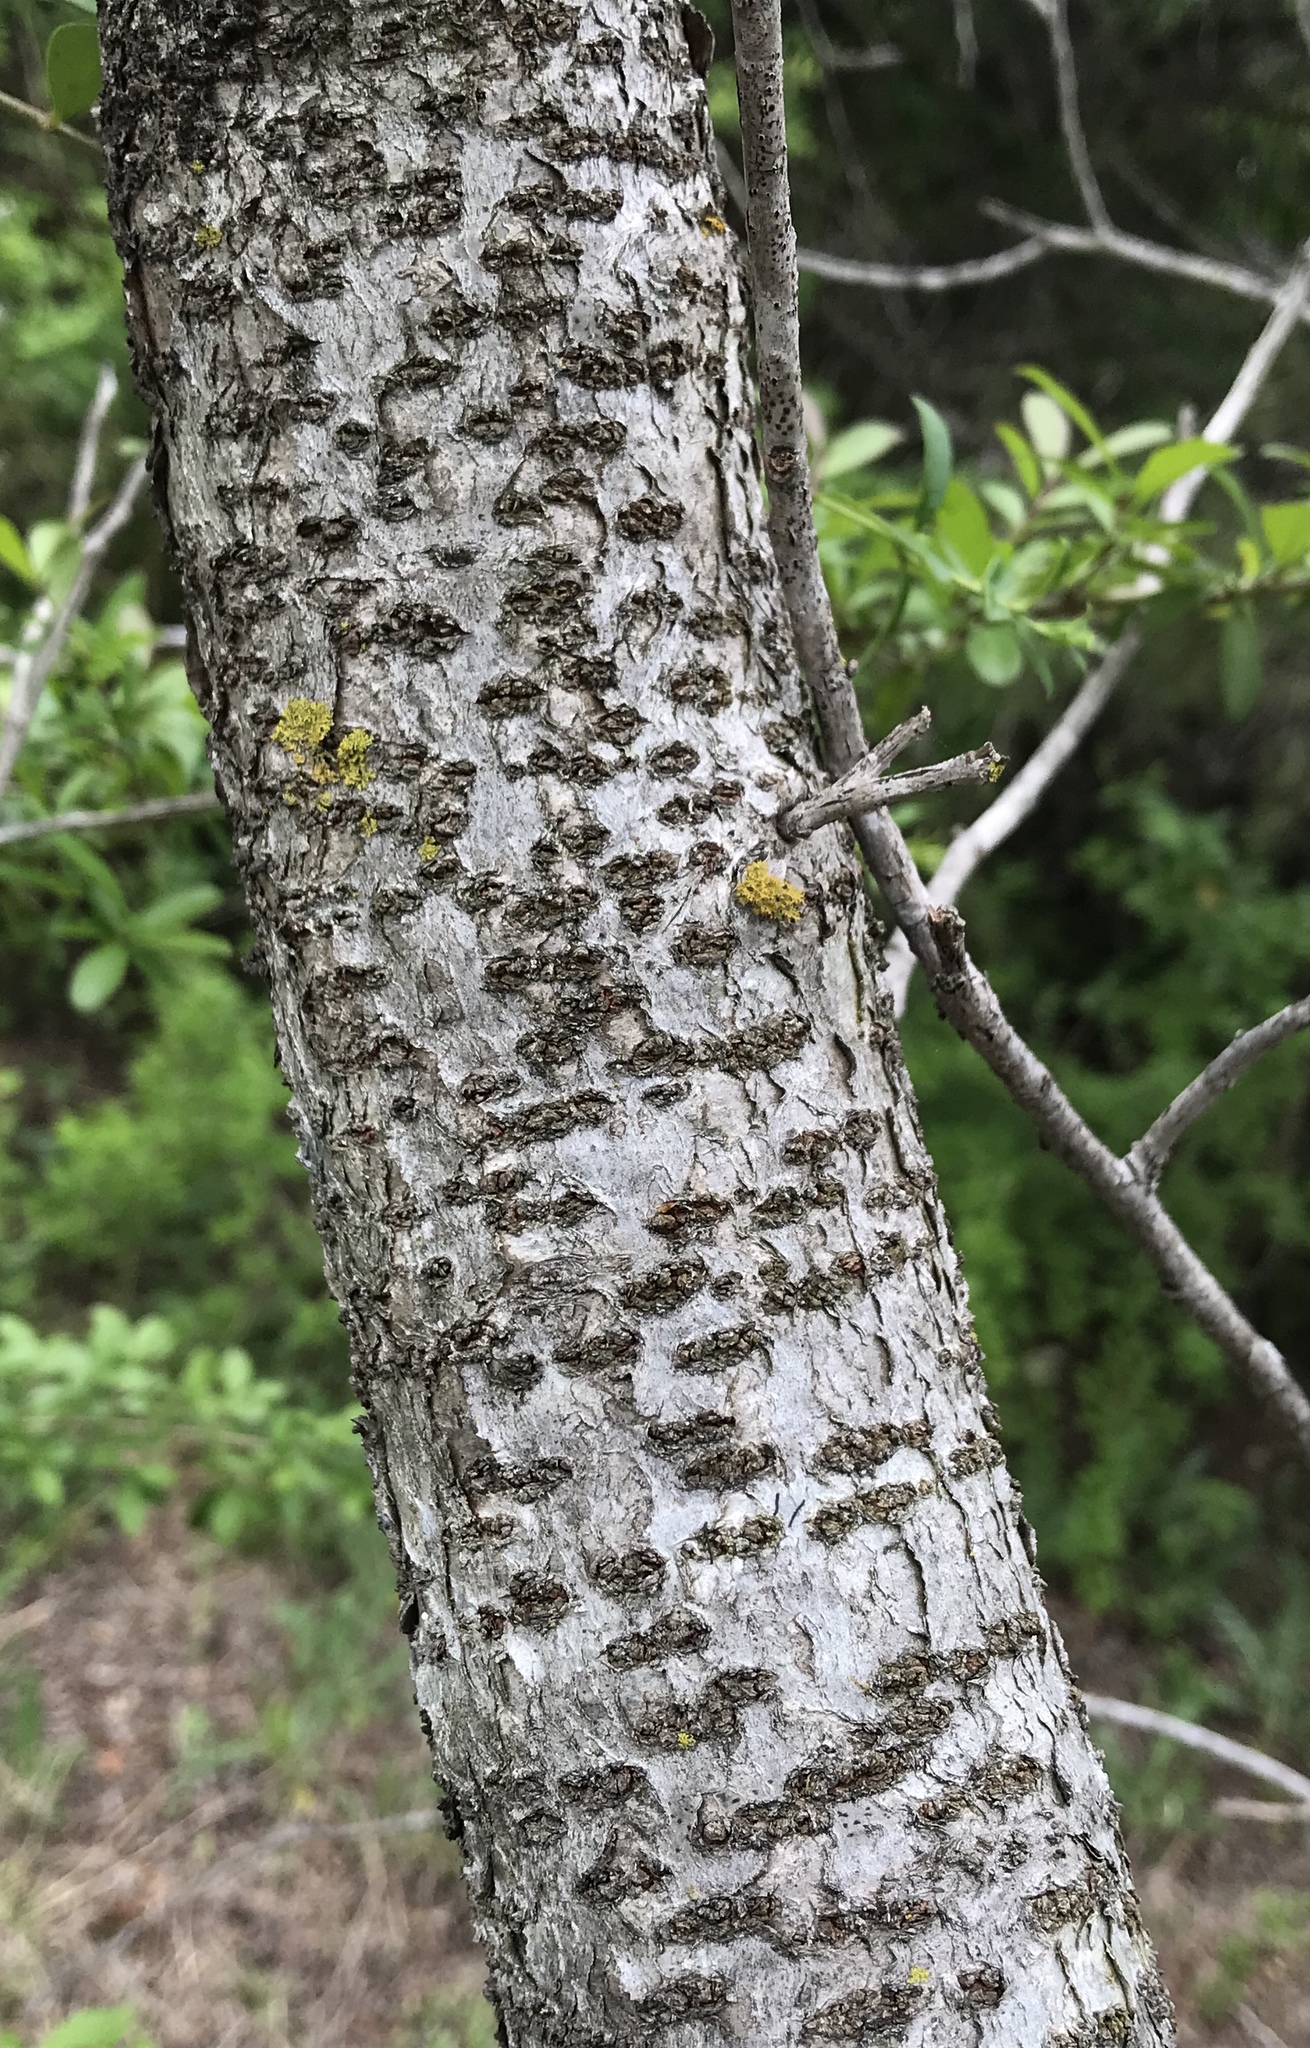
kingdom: Plantae
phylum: Tracheophyta
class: Magnoliopsida
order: Sapindales
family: Anacardiaceae
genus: Rhus
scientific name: Rhus lanceolata
